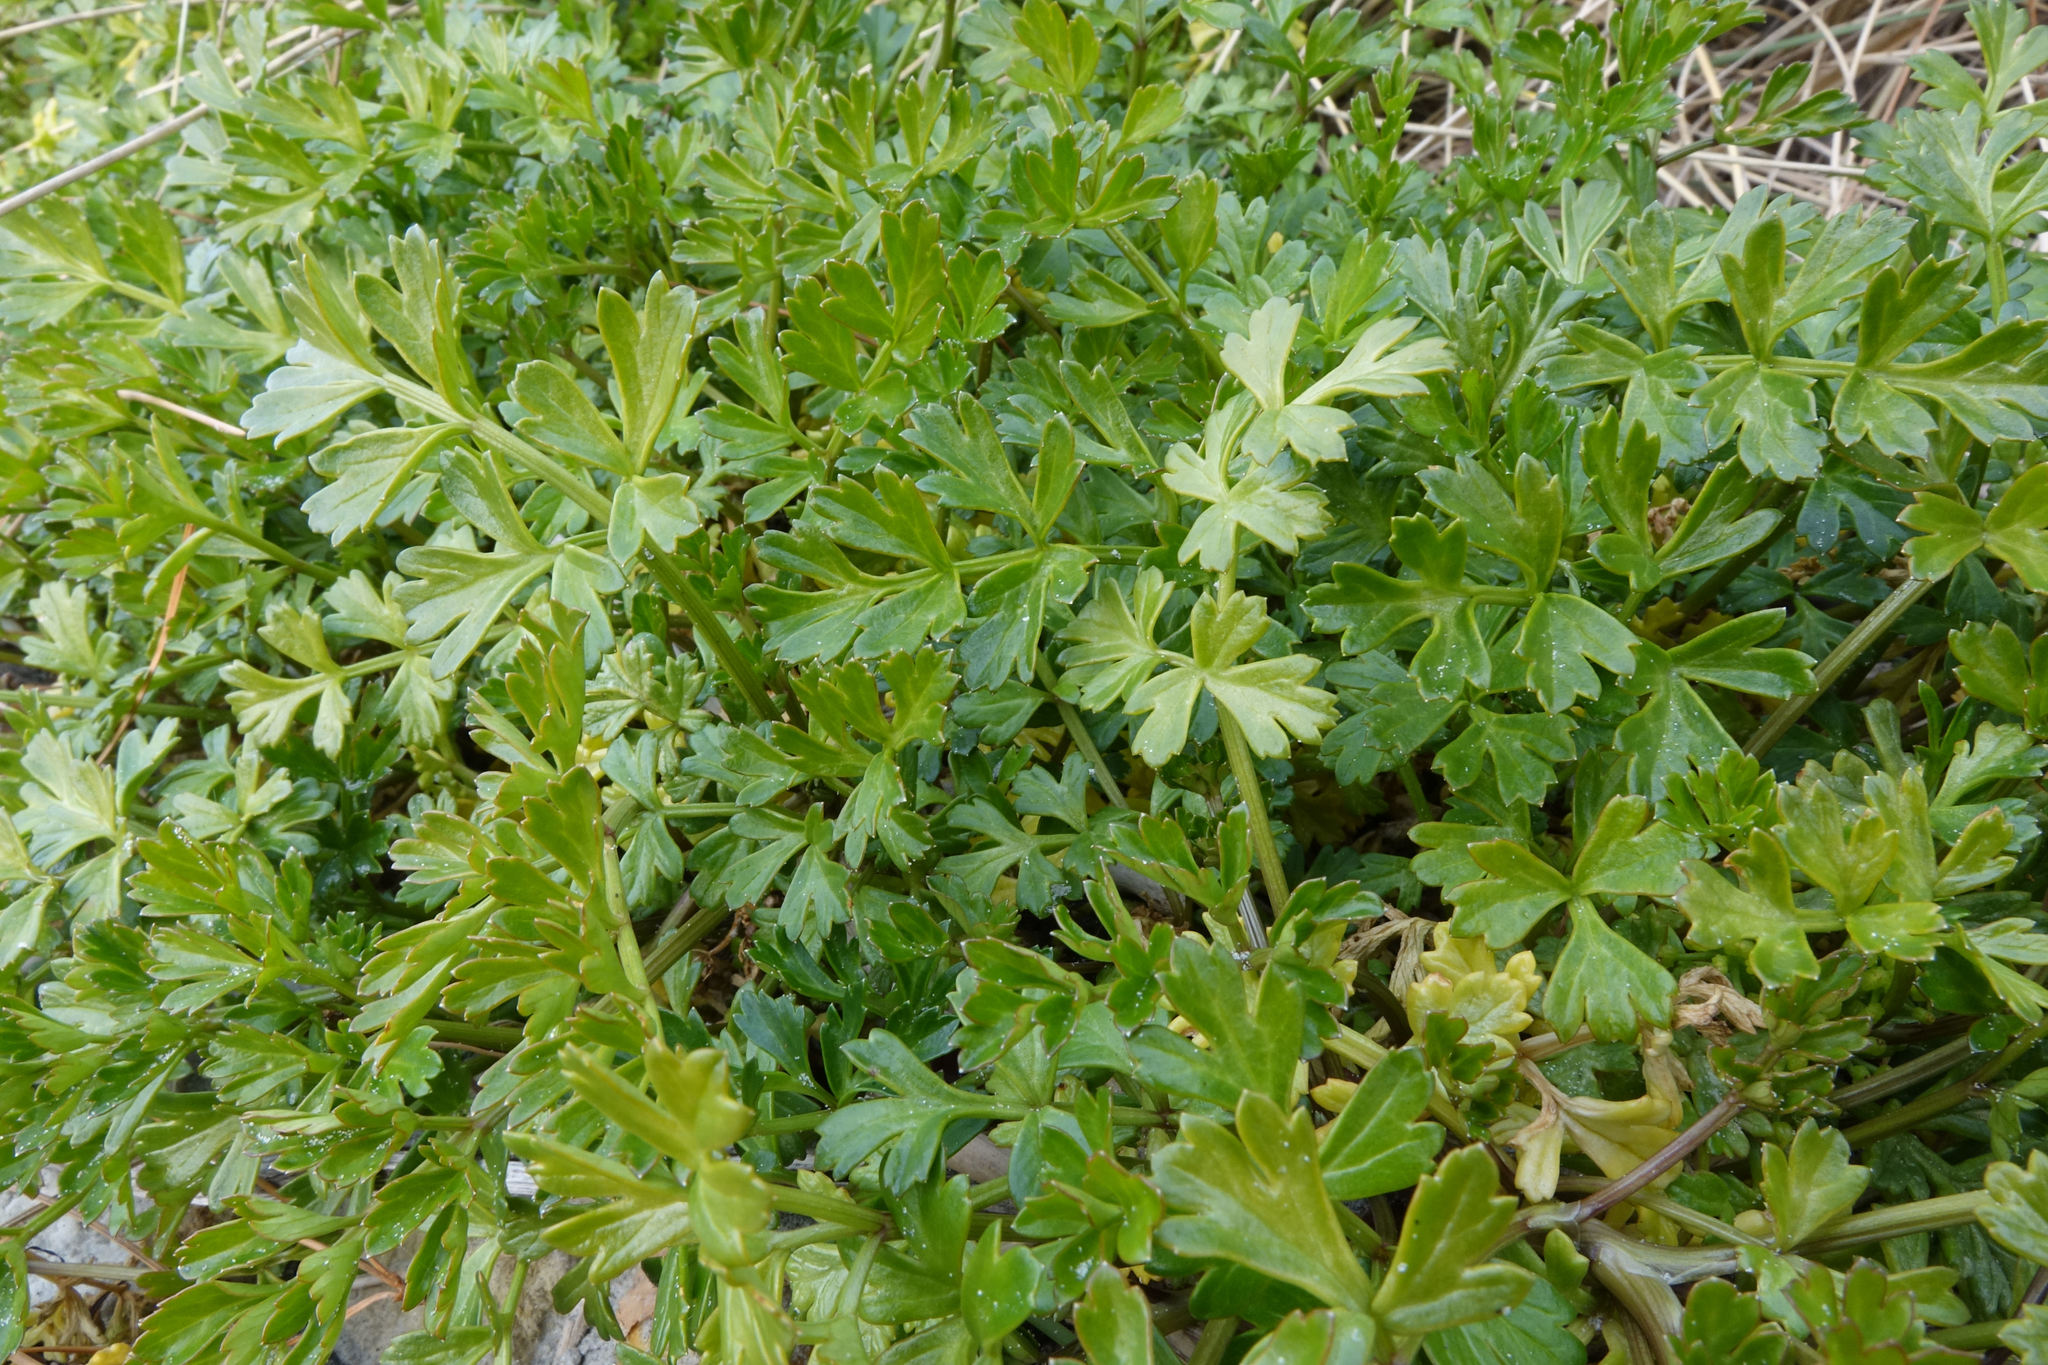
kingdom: Plantae
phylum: Tracheophyta
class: Magnoliopsida
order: Apiales
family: Apiaceae
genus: Apium
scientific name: Apium prostratum
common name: Prostrate marshwort
